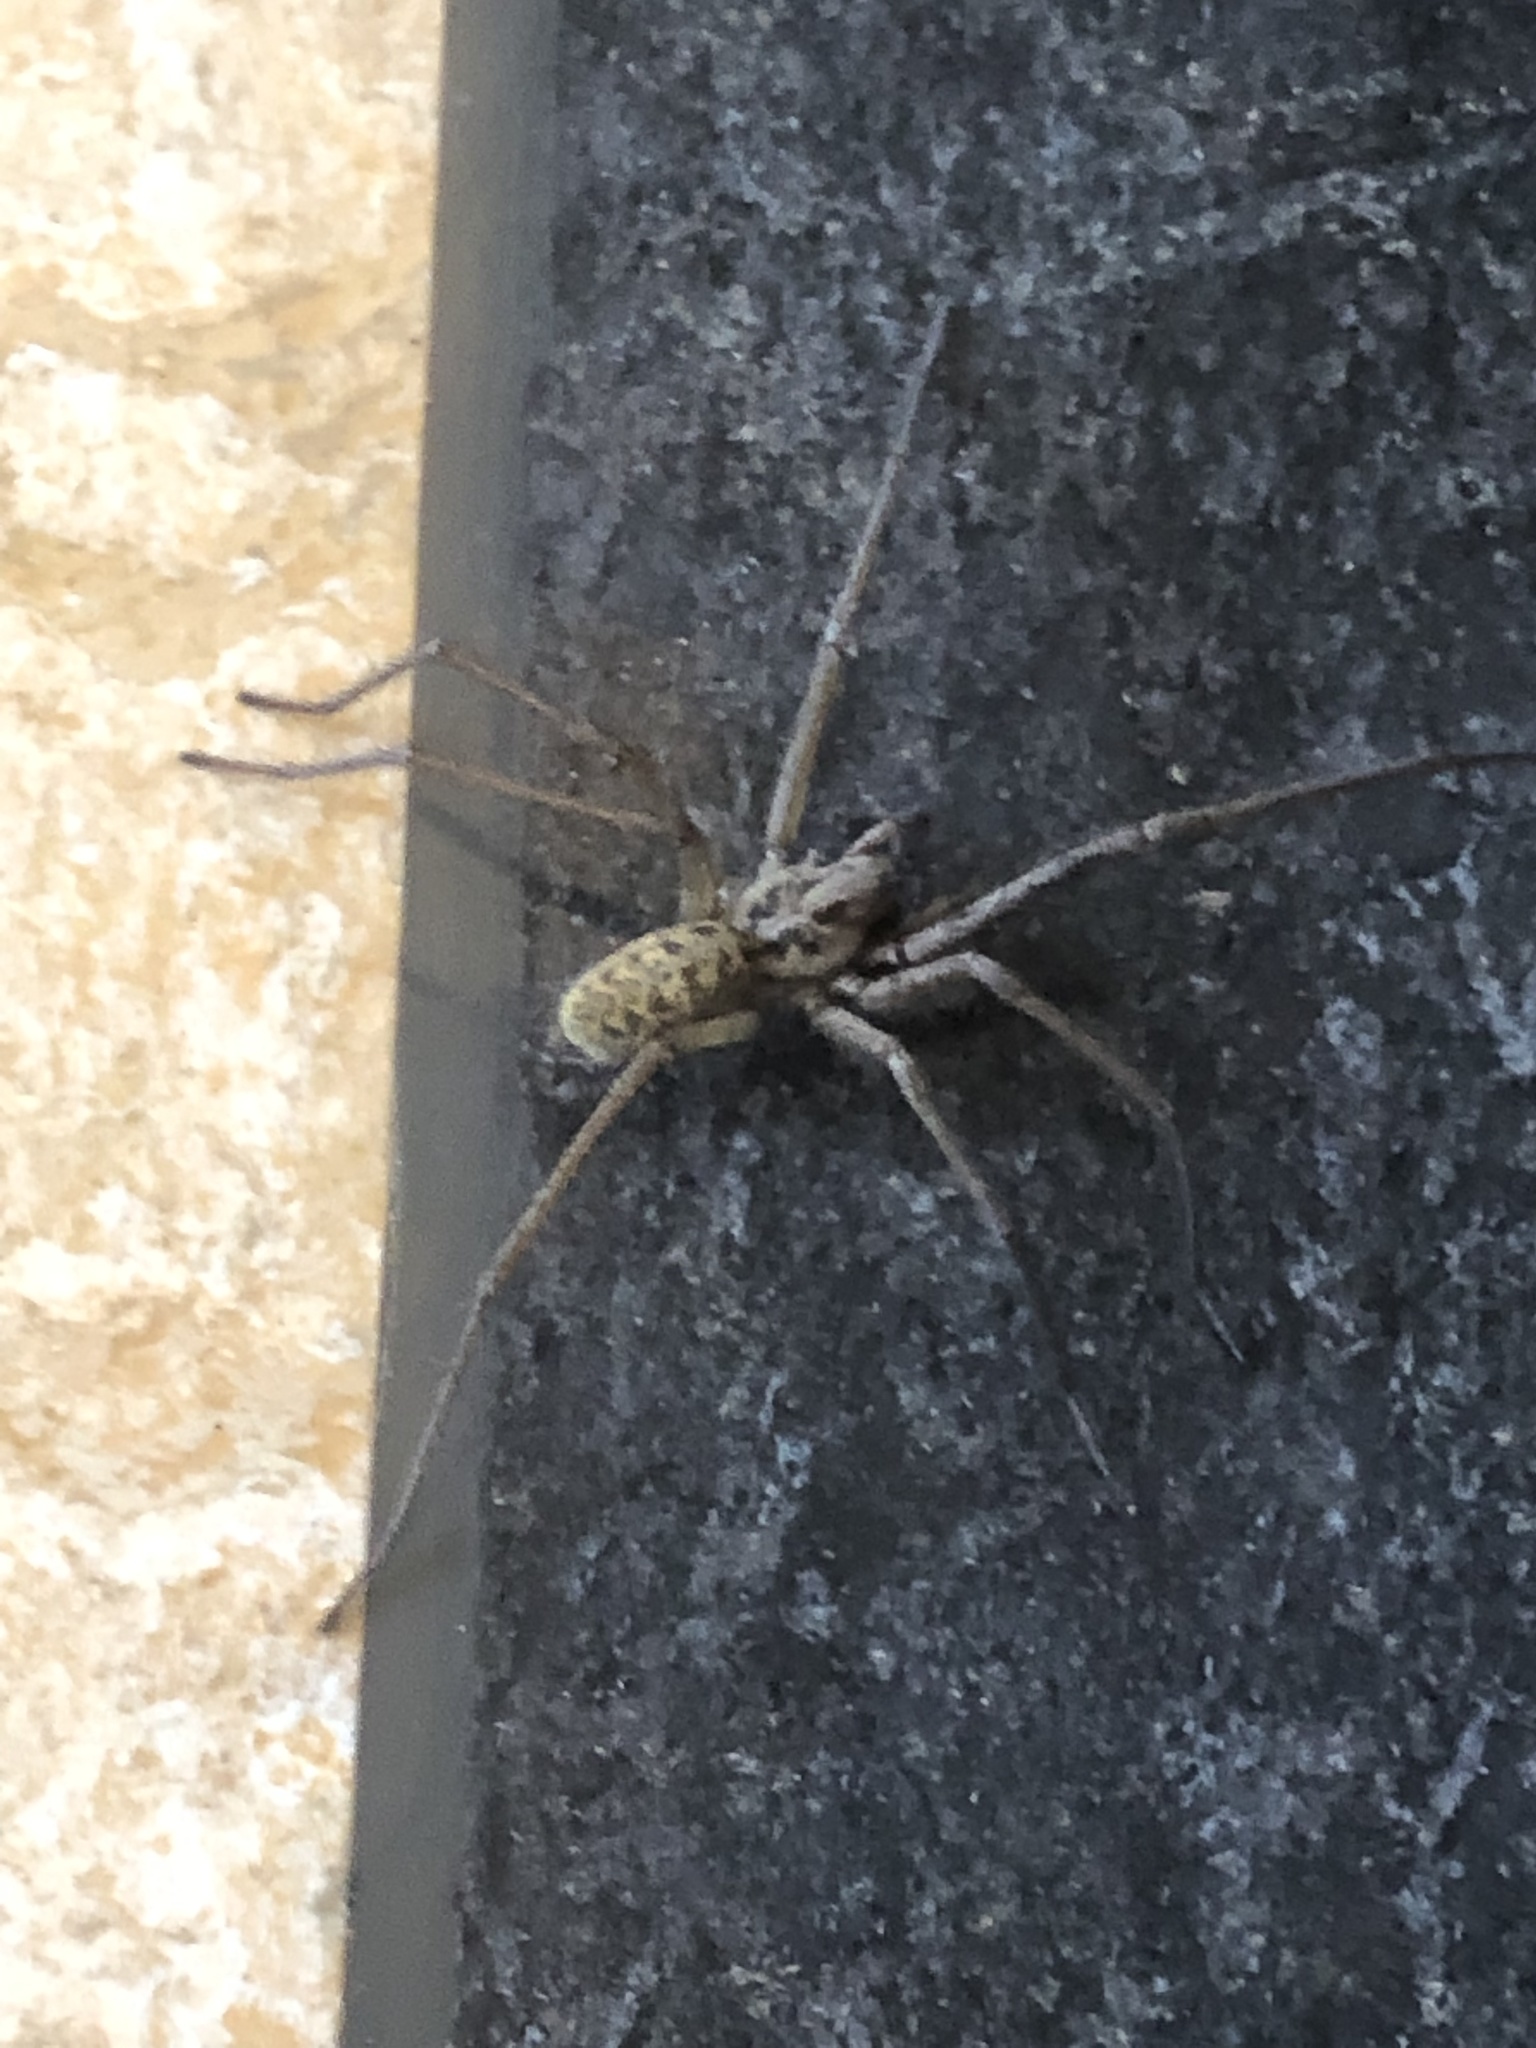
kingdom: Animalia
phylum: Arthropoda
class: Arachnida
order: Araneae
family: Agelenidae
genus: Eratigena
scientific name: Eratigena duellica
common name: Giant house spider
